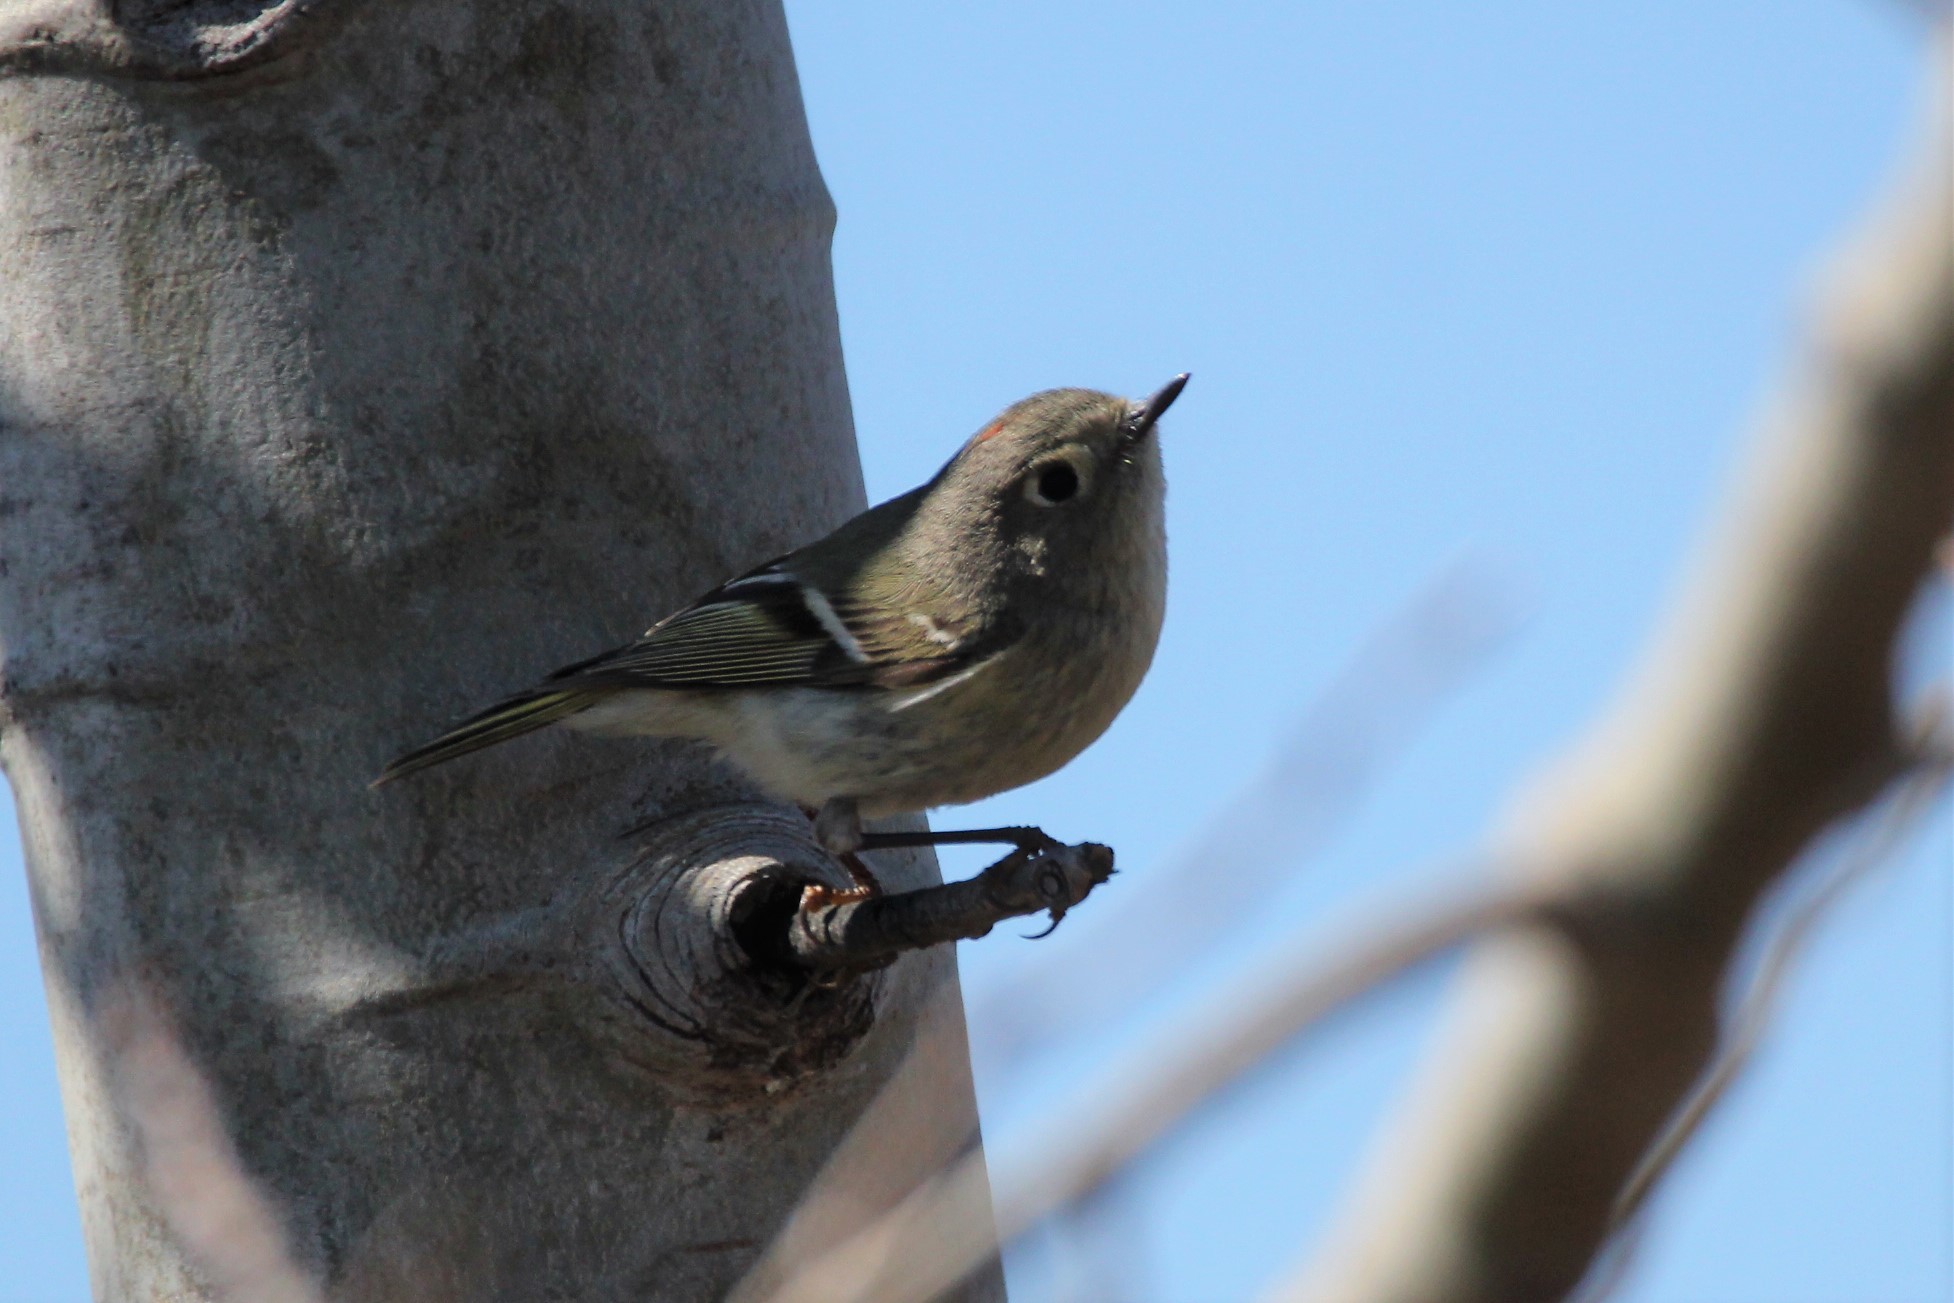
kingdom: Animalia
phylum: Chordata
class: Aves
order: Passeriformes
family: Regulidae
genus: Regulus
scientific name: Regulus calendula
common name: Ruby-crowned kinglet
